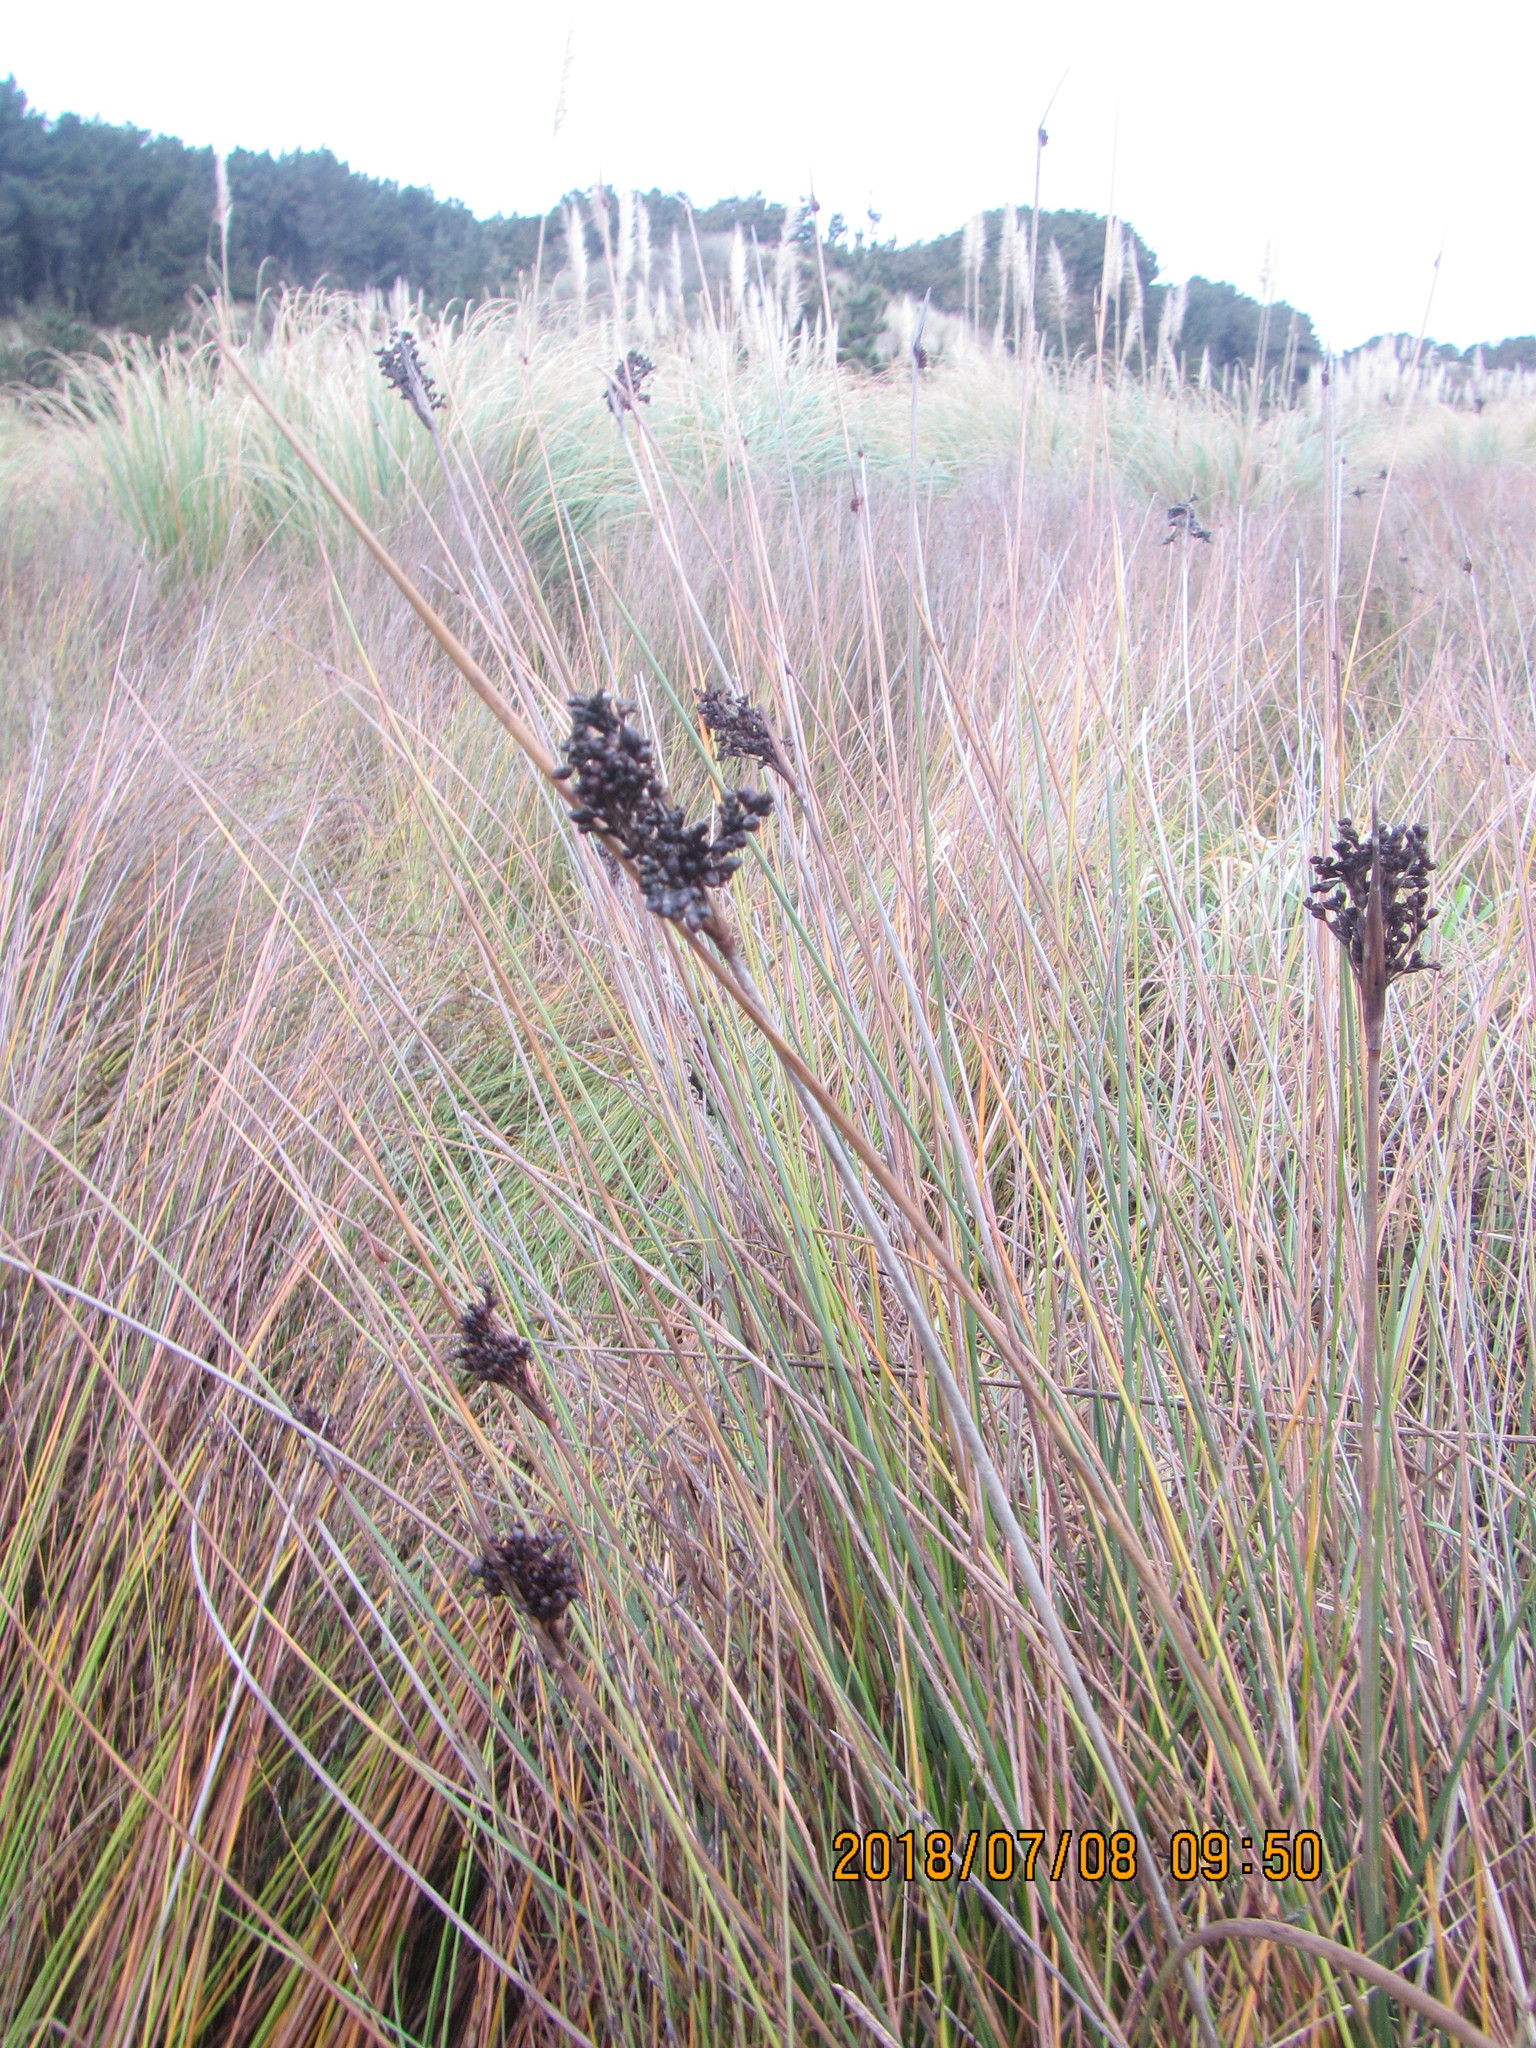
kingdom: Plantae
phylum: Tracheophyta
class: Liliopsida
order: Poales
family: Juncaceae
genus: Juncus
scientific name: Juncus acutus
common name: Sharp rush
